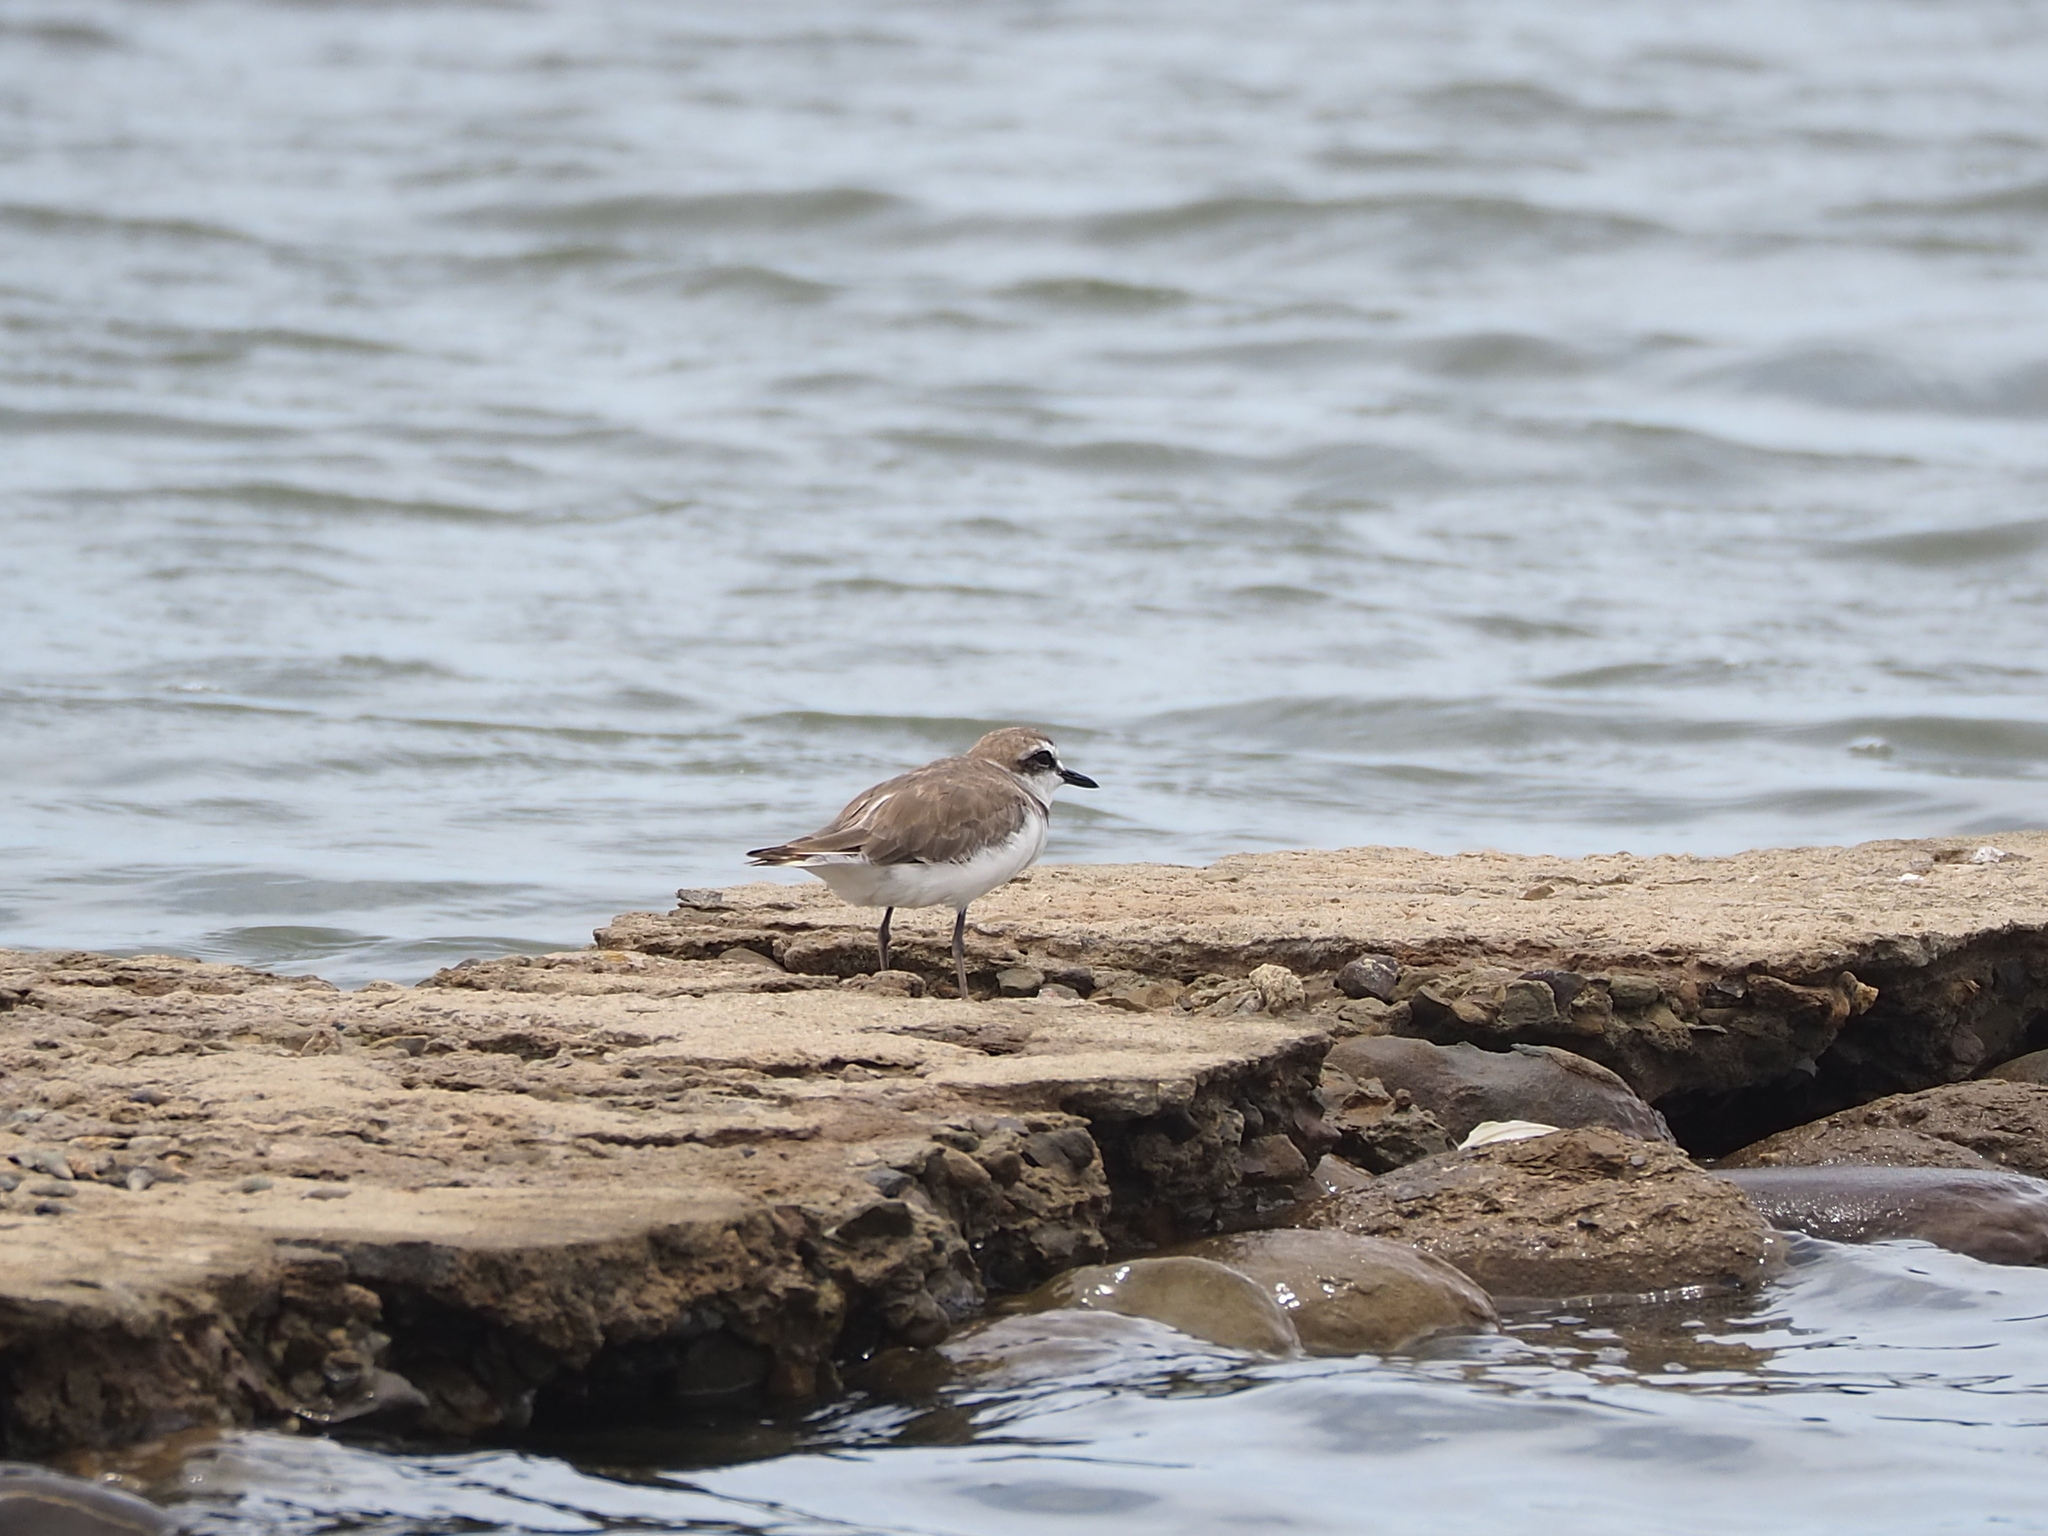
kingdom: Animalia
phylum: Chordata
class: Aves
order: Charadriiformes
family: Charadriidae
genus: Charadrius
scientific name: Charadrius alexandrinus
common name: Kentish plover
